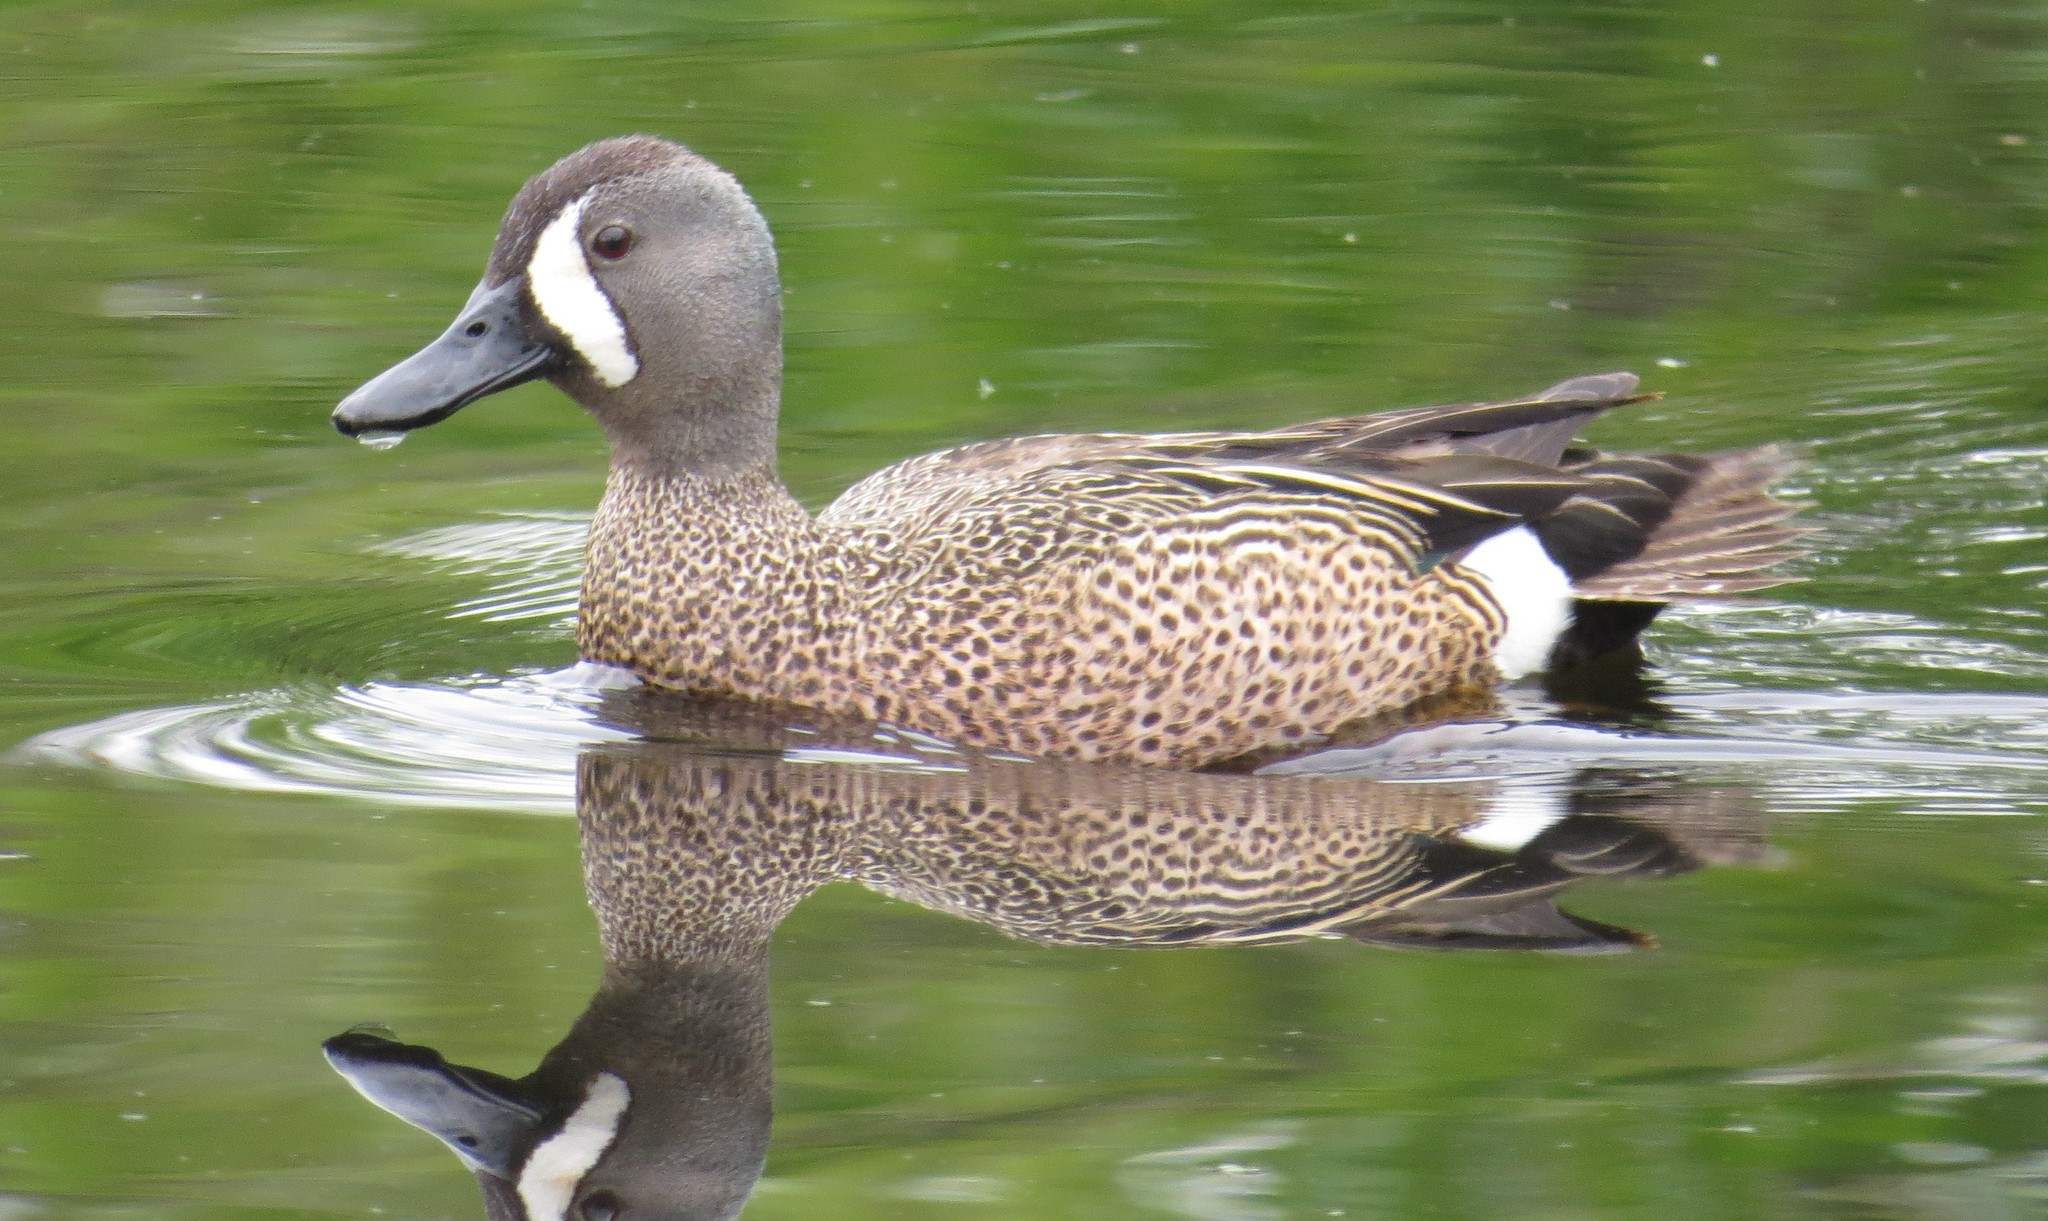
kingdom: Animalia
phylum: Chordata
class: Aves
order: Anseriformes
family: Anatidae
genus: Spatula
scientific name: Spatula discors
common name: Blue-winged teal
